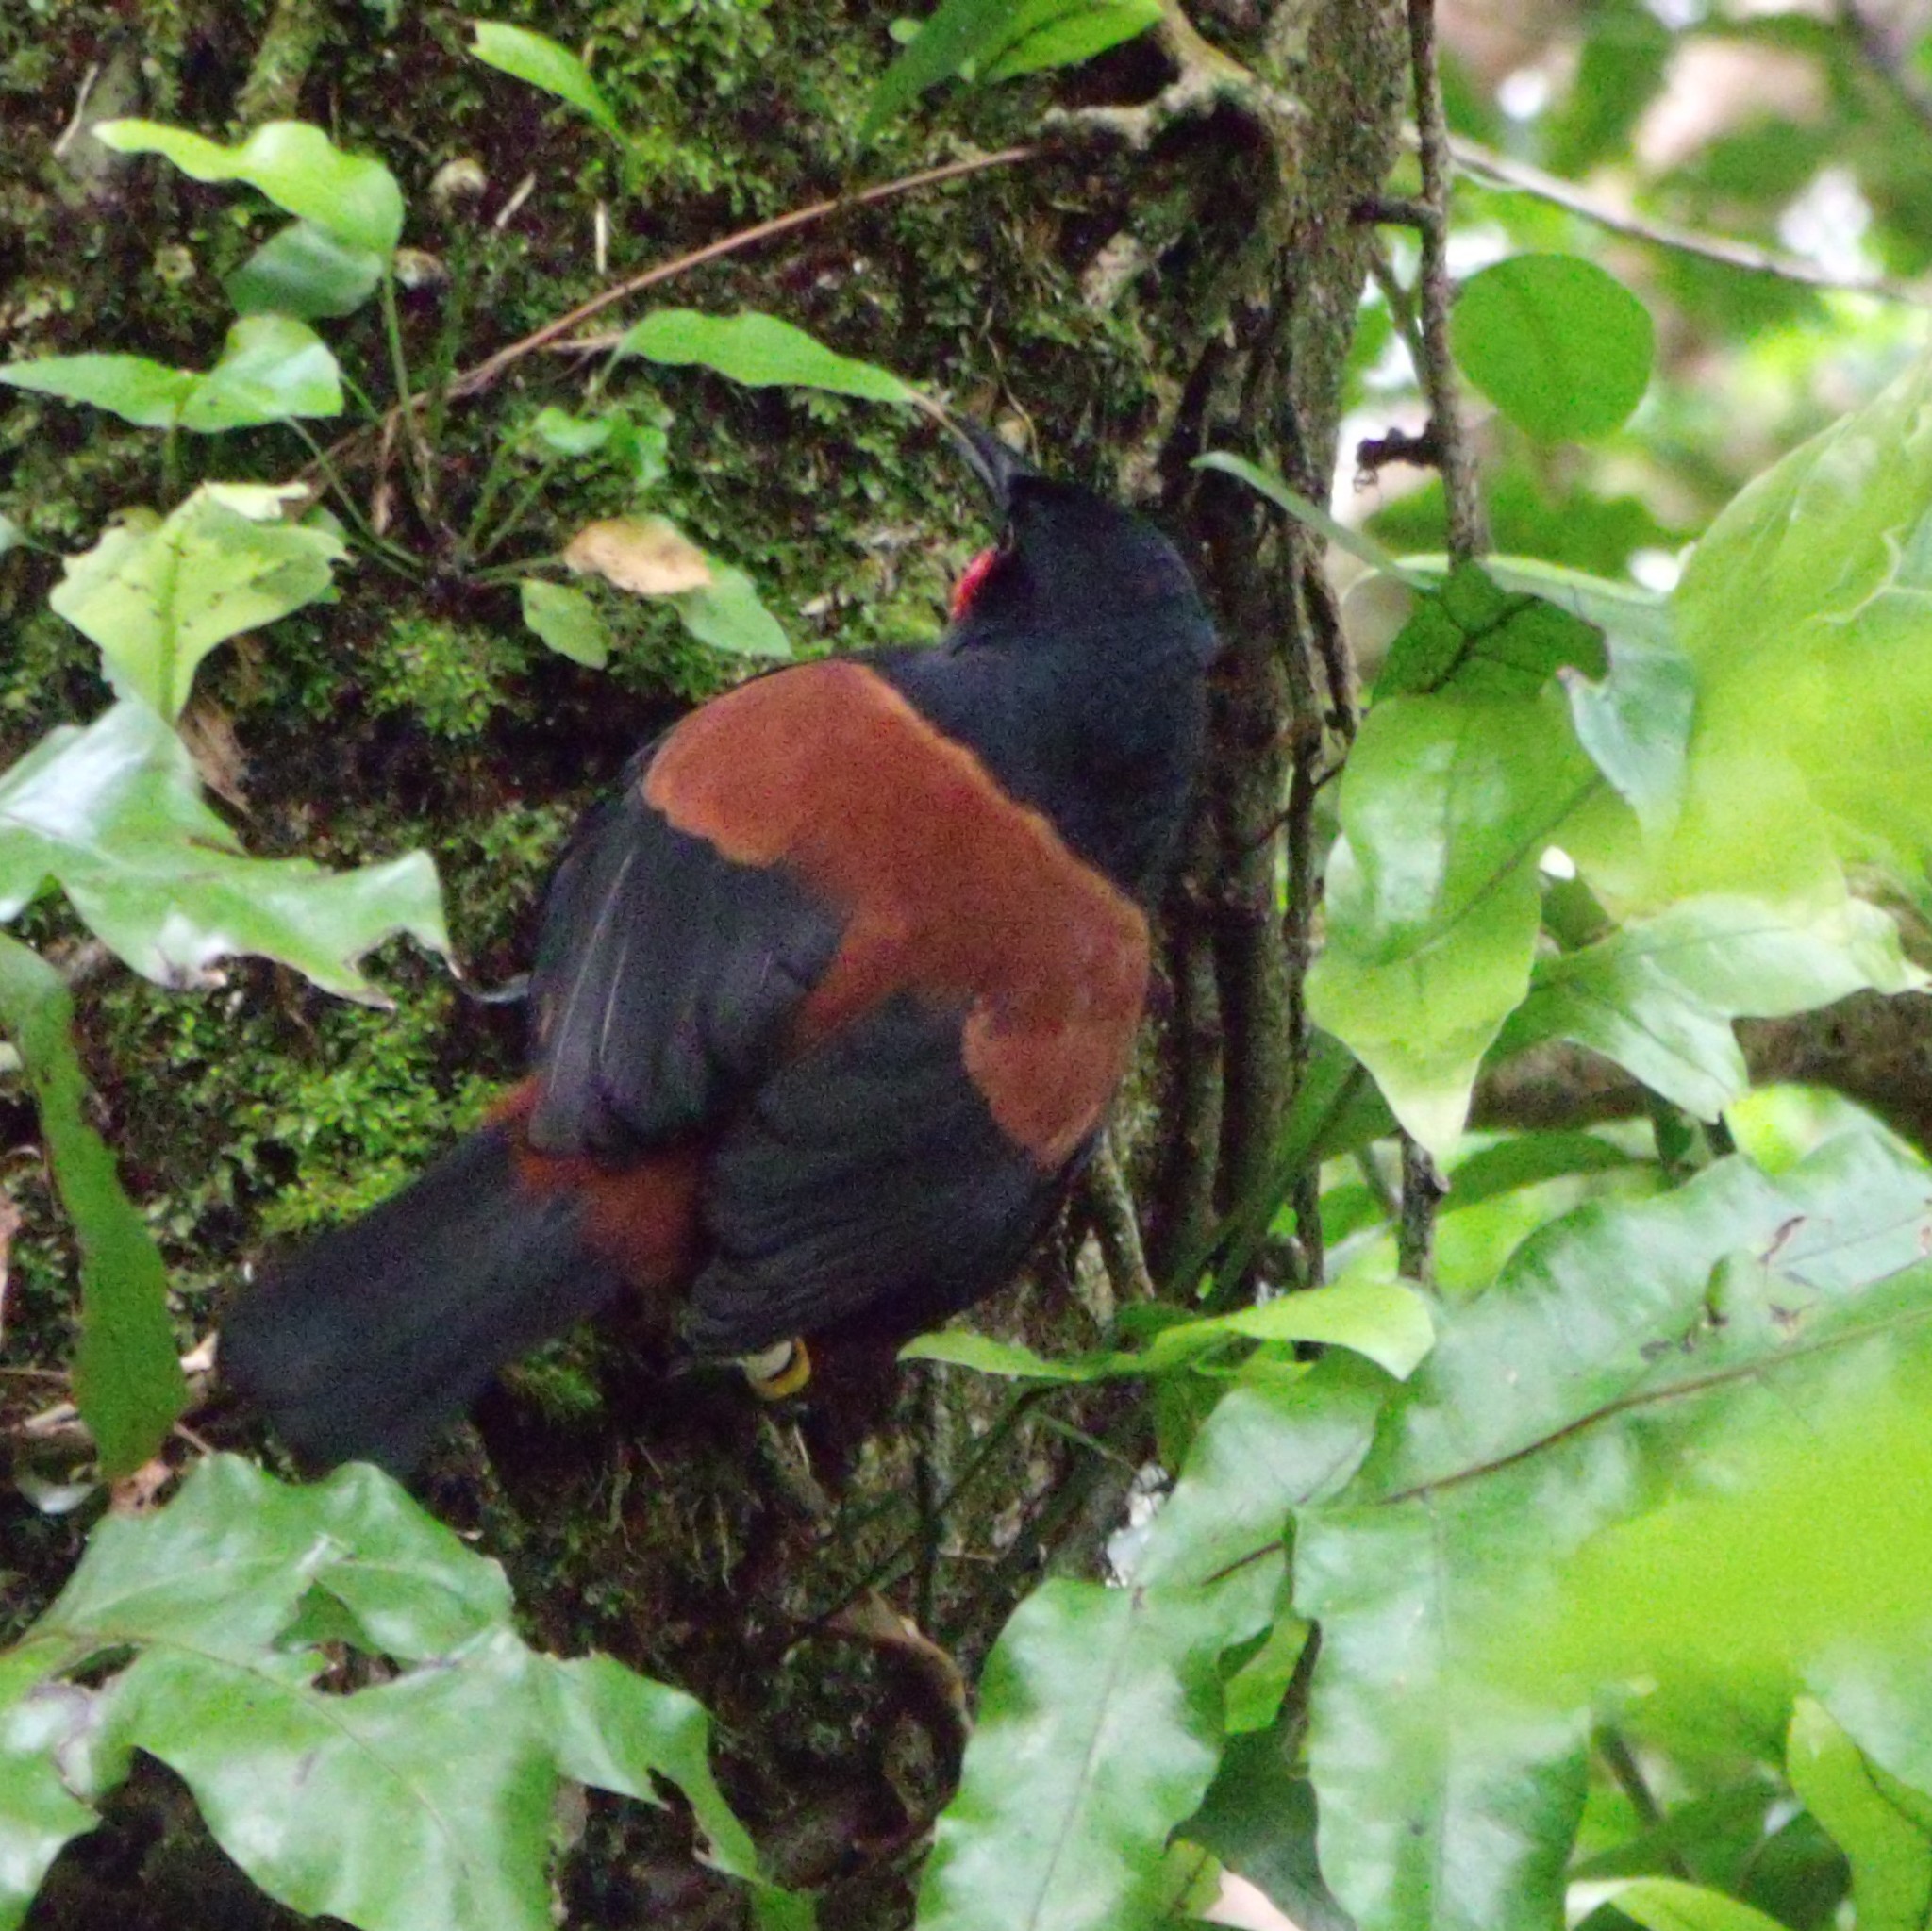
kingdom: Animalia
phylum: Chordata
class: Aves
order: Passeriformes
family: Callaeatidae
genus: Philesturnus
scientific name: Philesturnus carunculatus
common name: South island saddleback
